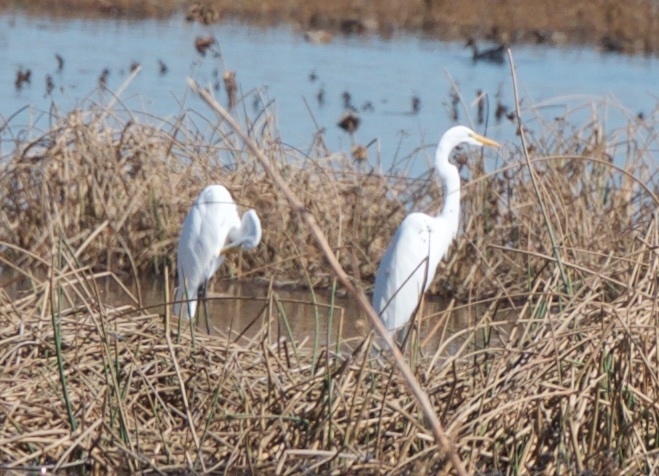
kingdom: Animalia
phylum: Chordata
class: Aves
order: Pelecaniformes
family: Ardeidae
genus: Ardea
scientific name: Ardea alba
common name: Great egret
